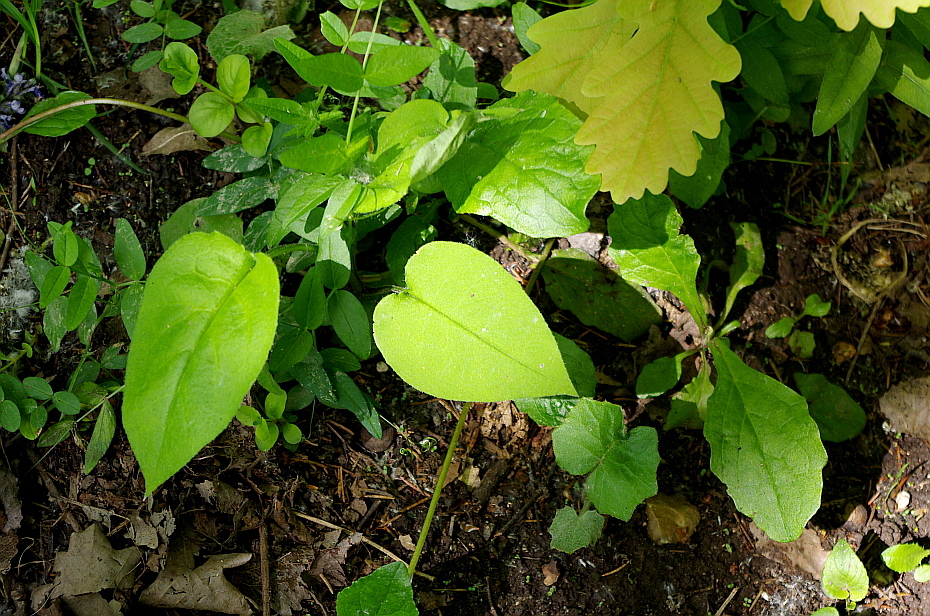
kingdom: Plantae
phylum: Tracheophyta
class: Magnoliopsida
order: Boraginales
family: Boraginaceae
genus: Pulmonaria
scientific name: Pulmonaria obscura
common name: Suffolk lungwort
